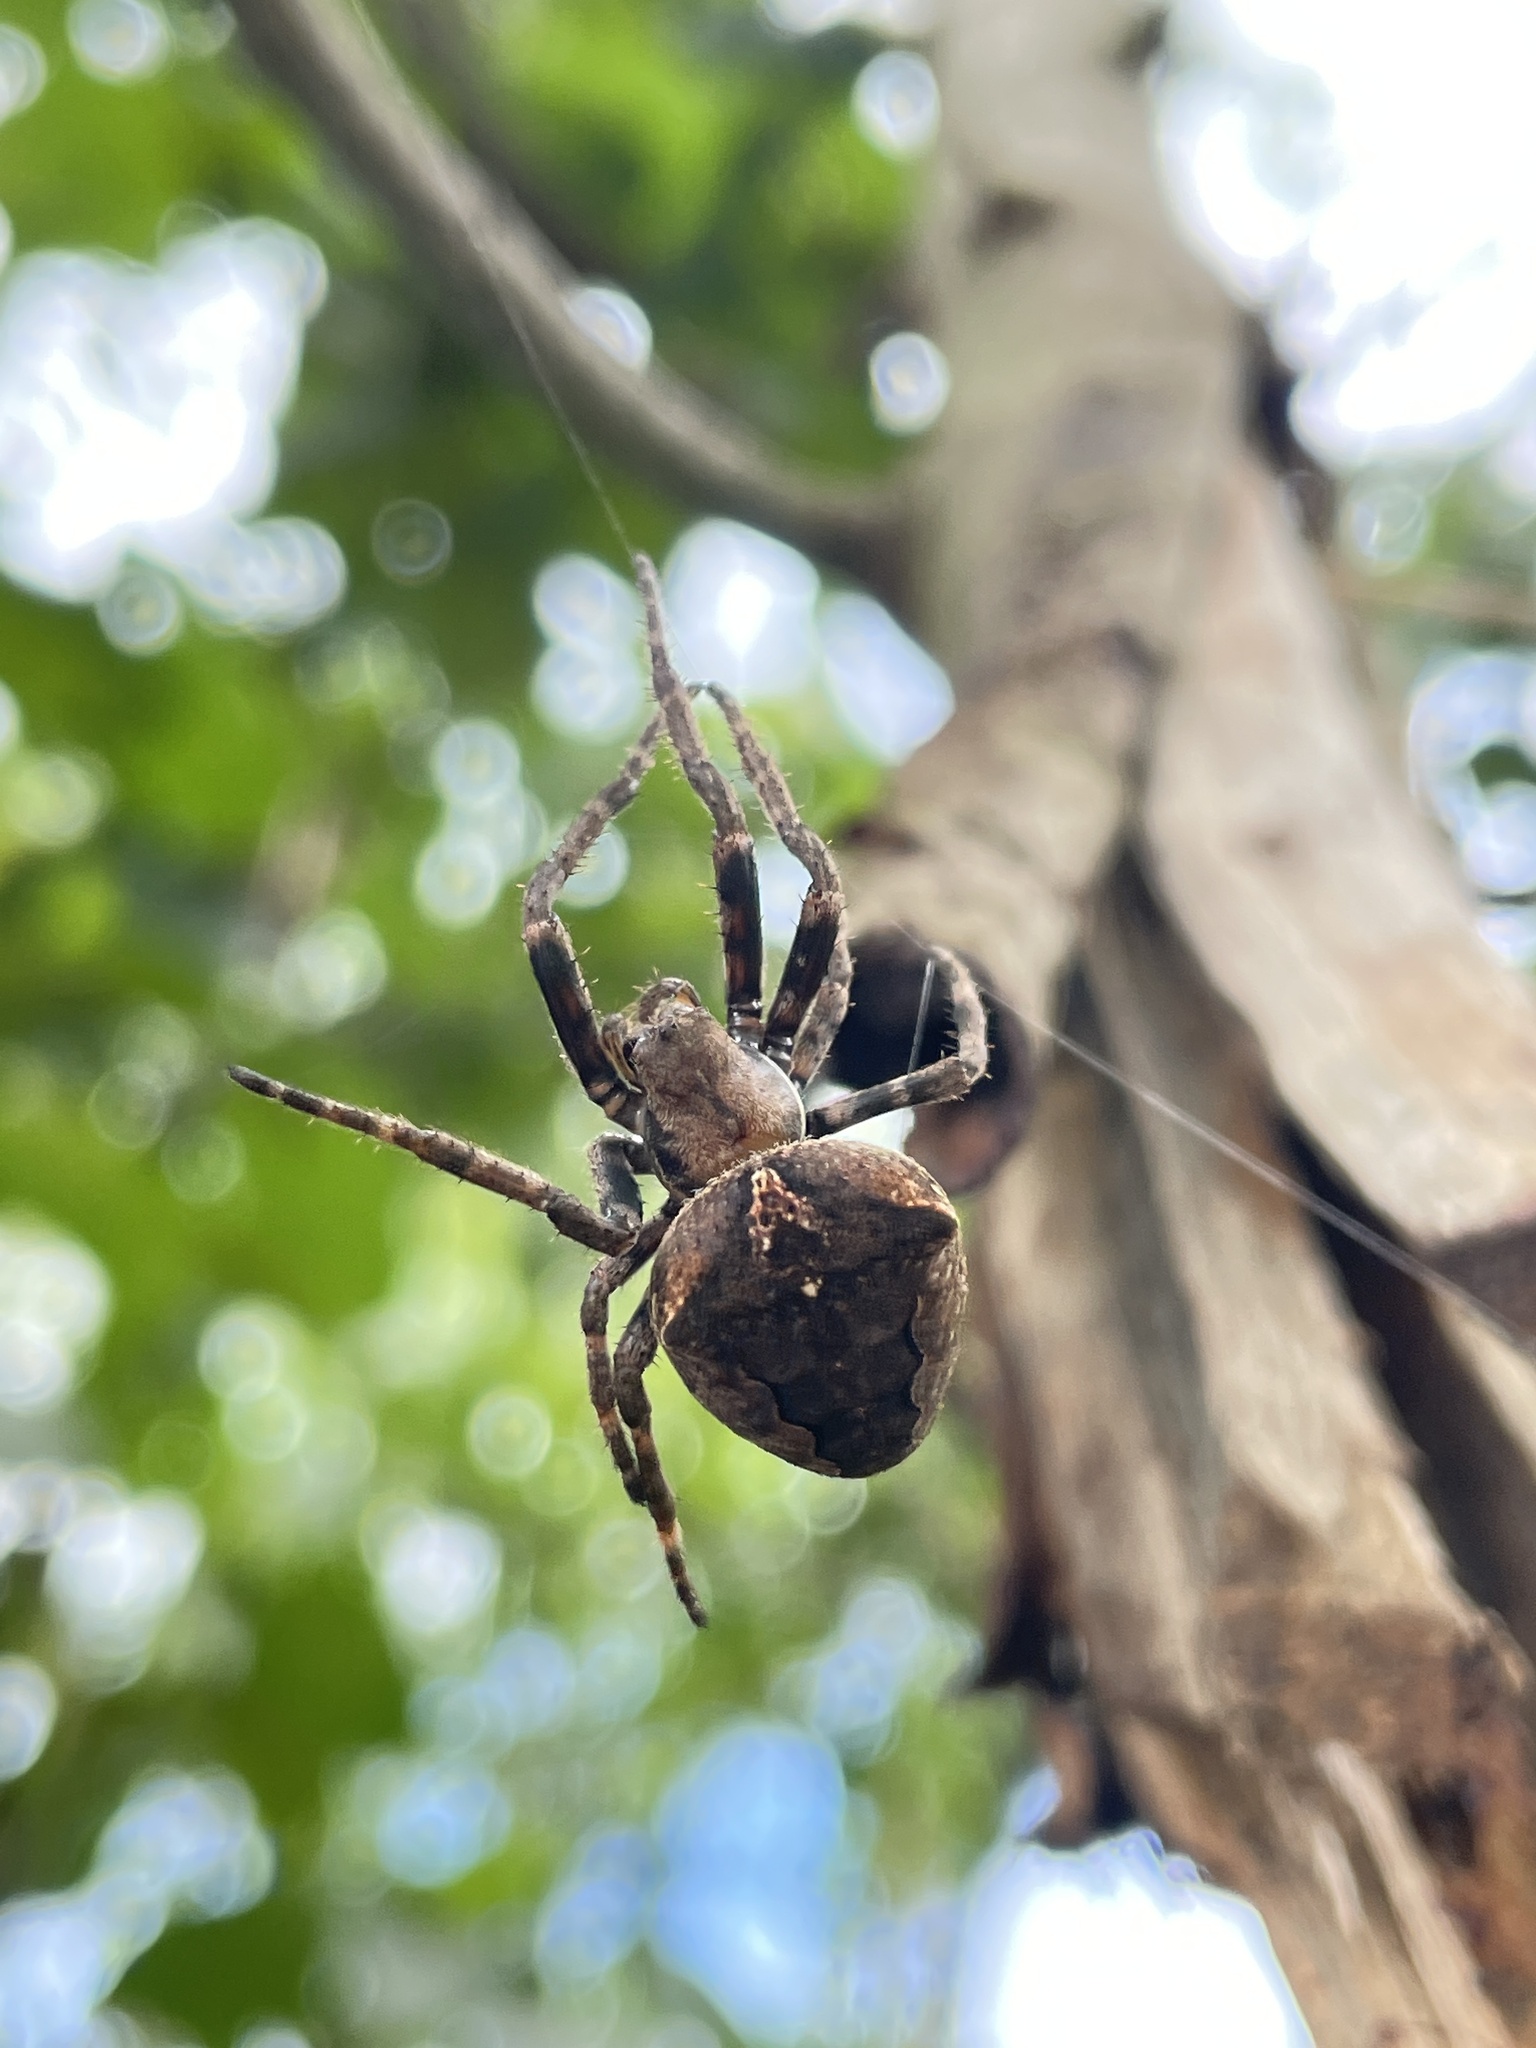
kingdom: Animalia
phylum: Arthropoda
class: Arachnida
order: Araneae
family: Araneidae
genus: Araneus
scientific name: Araneus ventricosus
